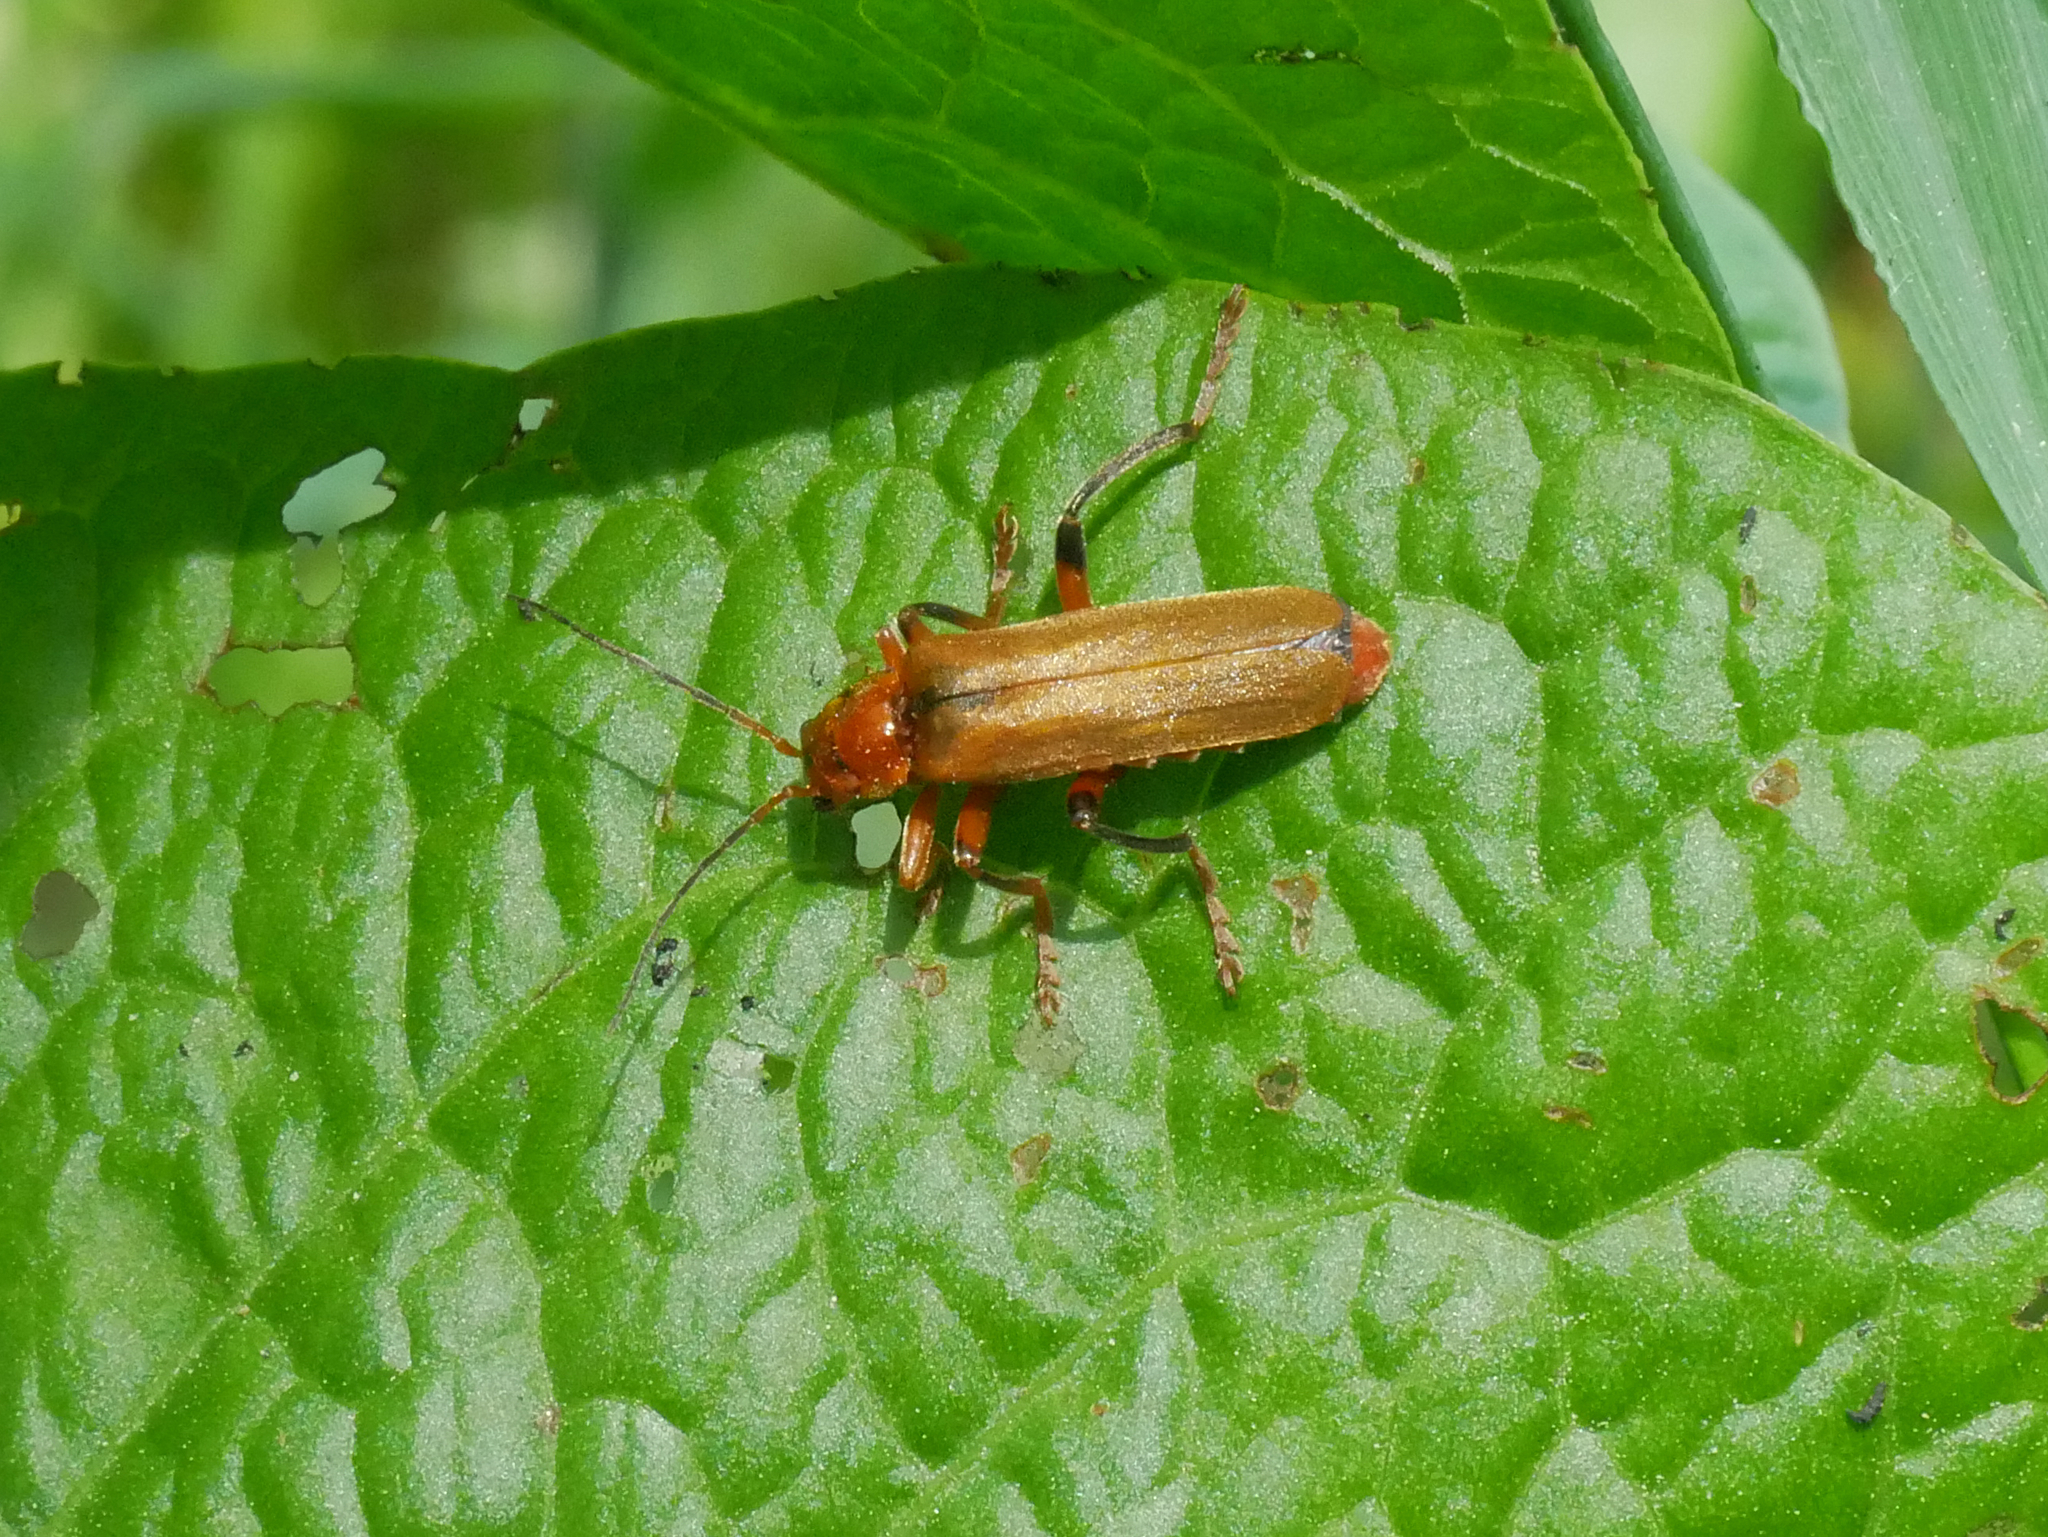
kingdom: Animalia
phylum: Arthropoda
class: Insecta
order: Coleoptera
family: Cantharidae
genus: Cantharis
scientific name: Cantharis livida
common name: Livid soldier beetle
